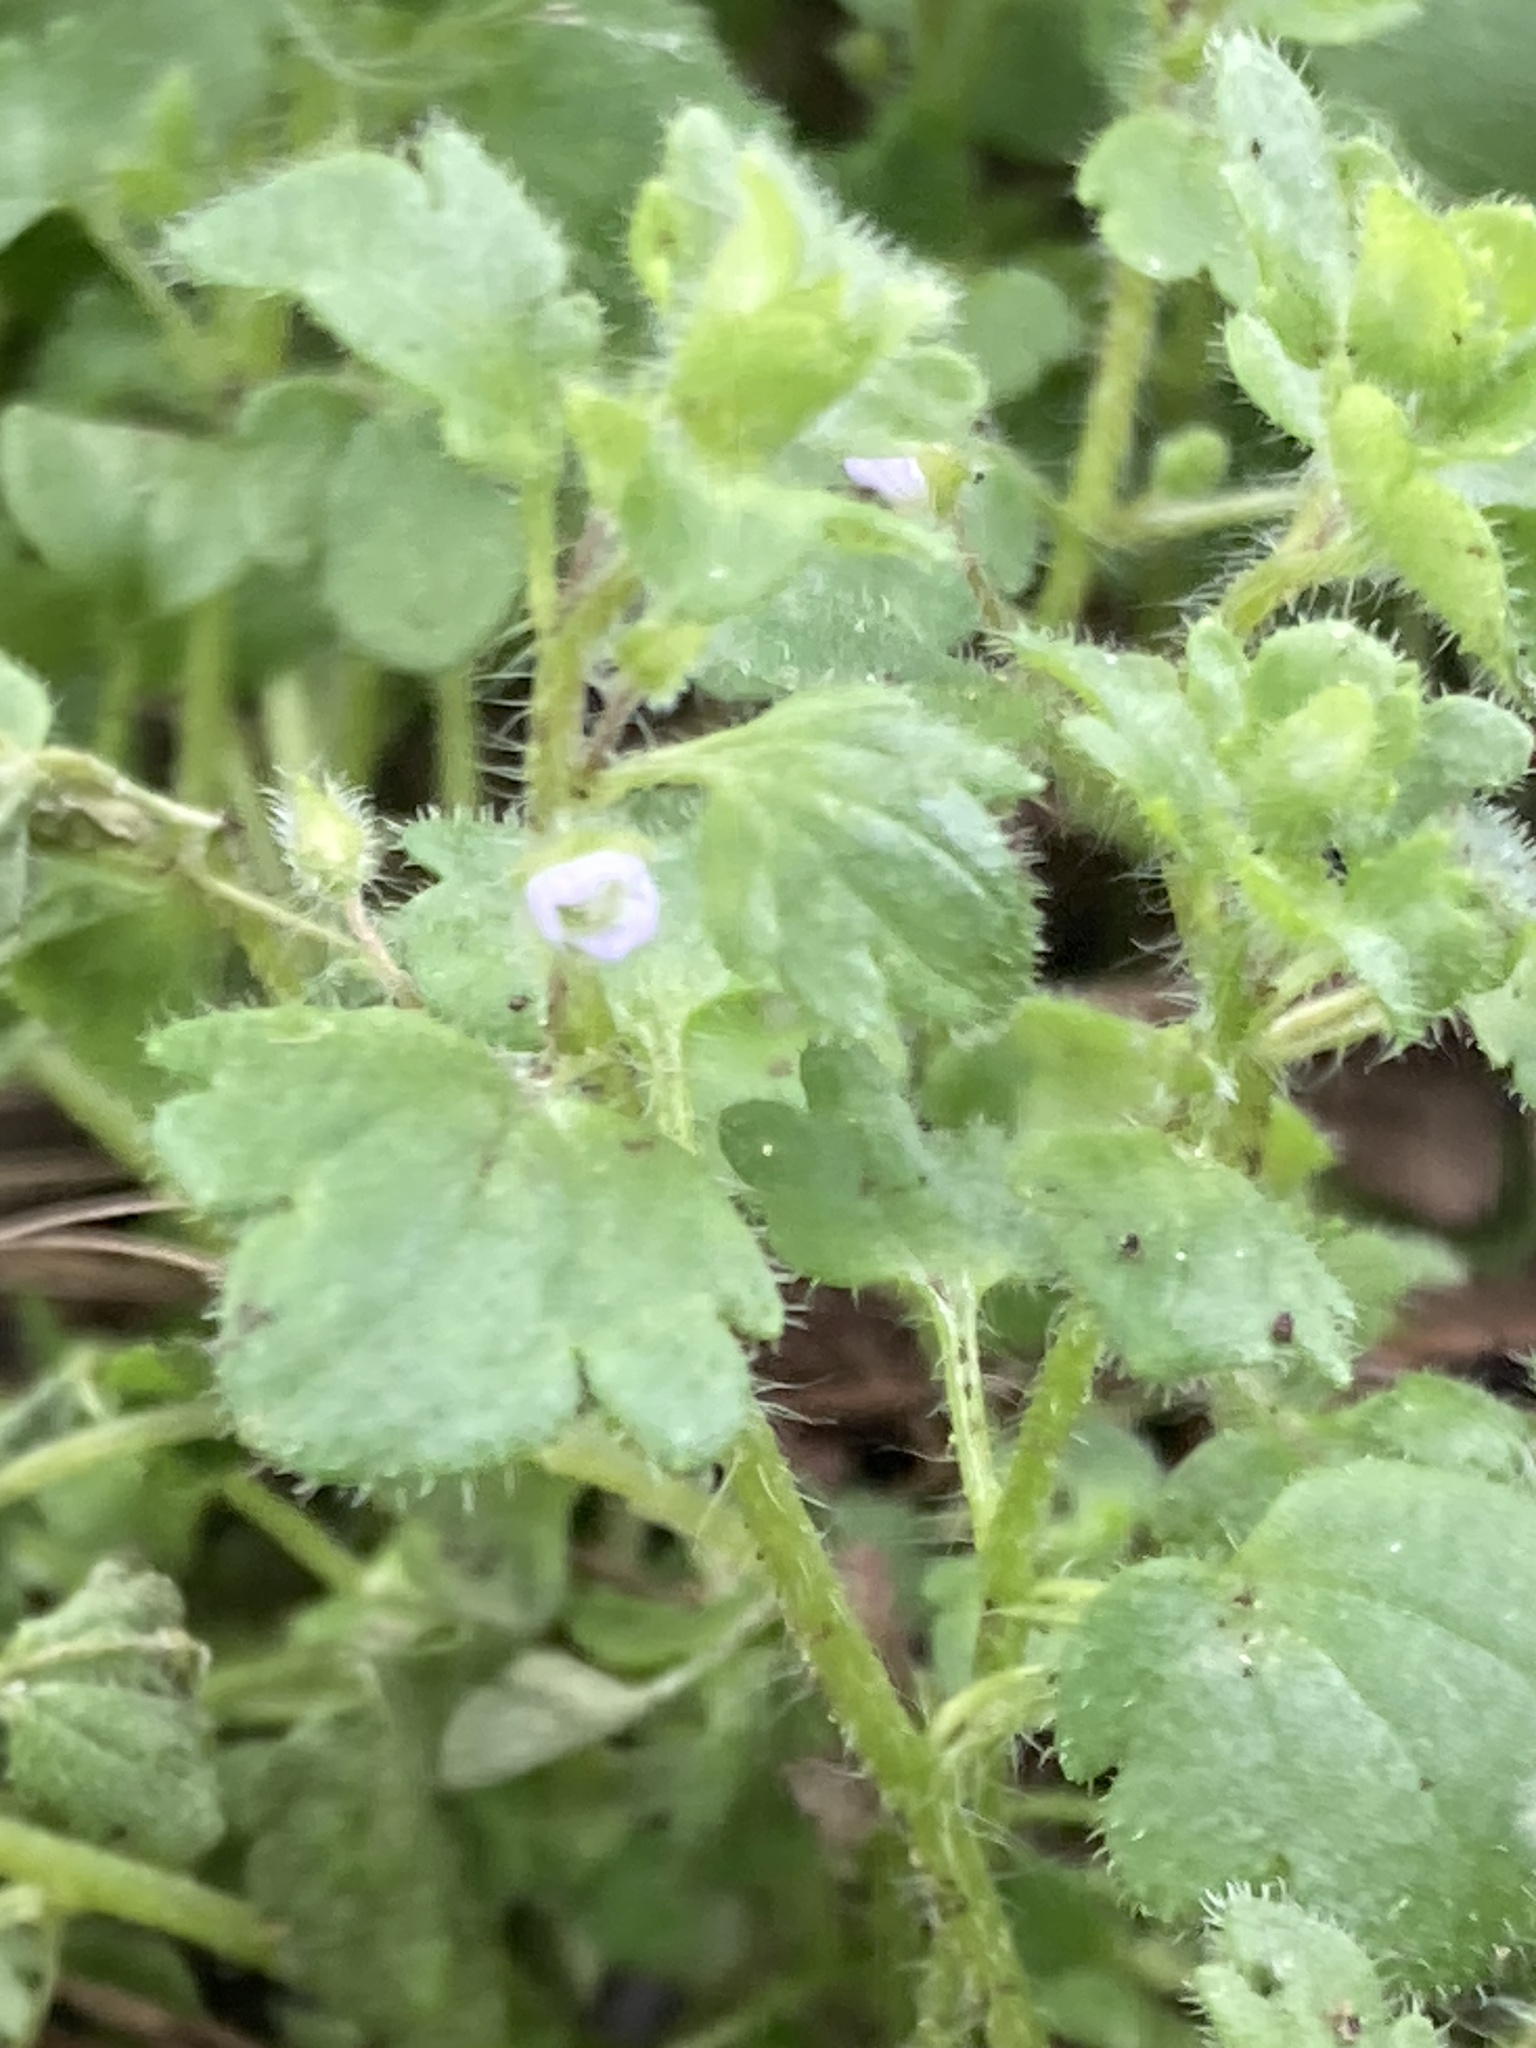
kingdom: Plantae
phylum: Tracheophyta
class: Magnoliopsida
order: Lamiales
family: Plantaginaceae
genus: Veronica
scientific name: Veronica hederifolia
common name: Ivy-leaved speedwell
